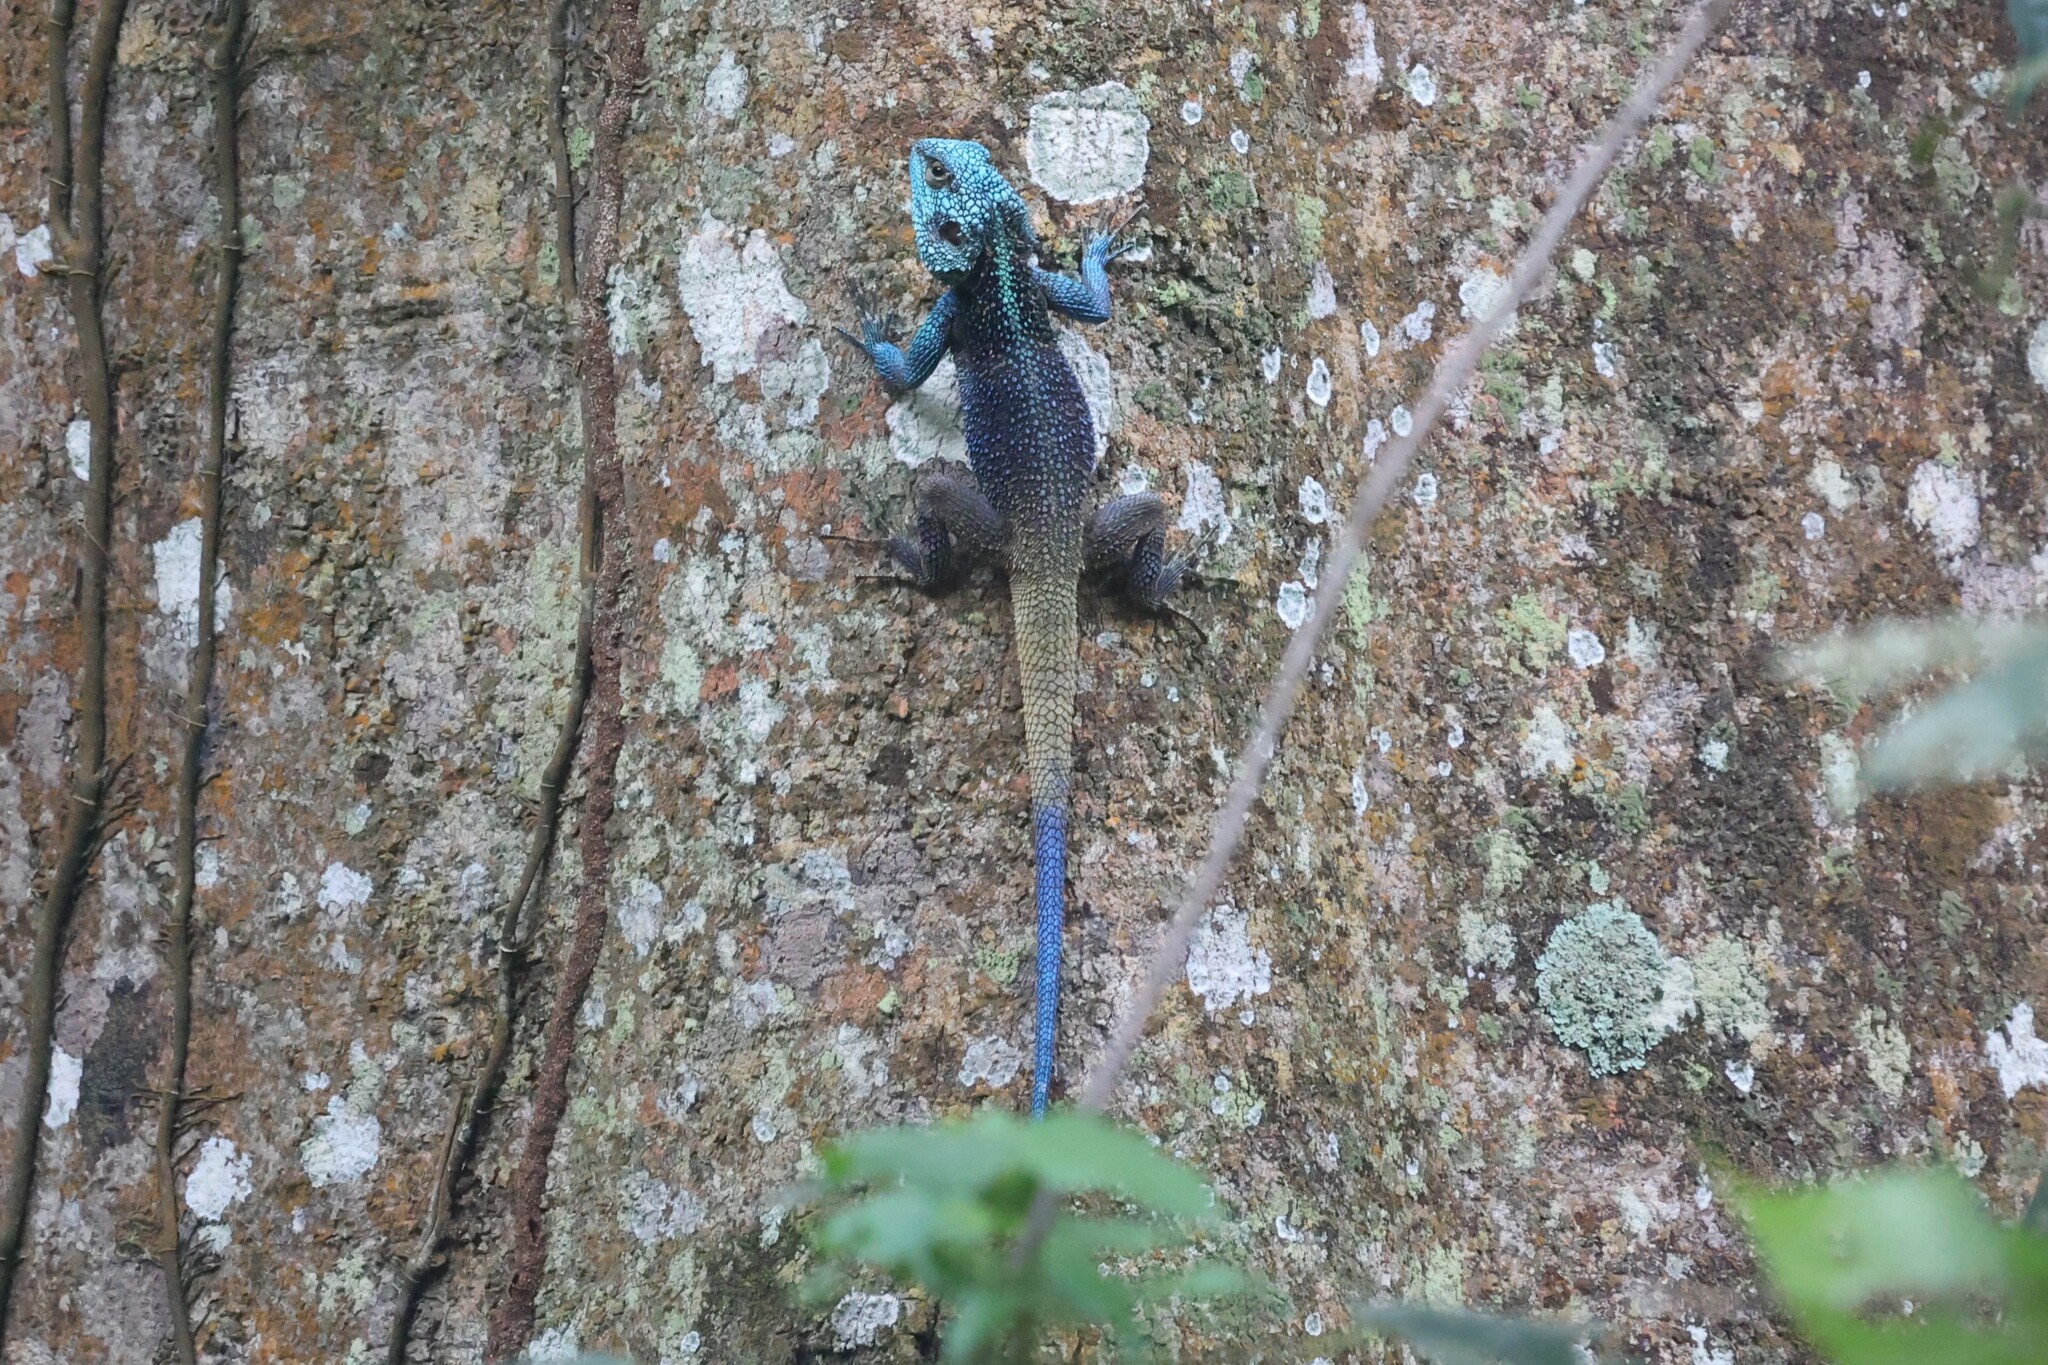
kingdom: Animalia
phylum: Chordata
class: Squamata
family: Agamidae
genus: Acanthocercus
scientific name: Acanthocercus ugandaensis
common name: Uganda blue-headed tree agama
